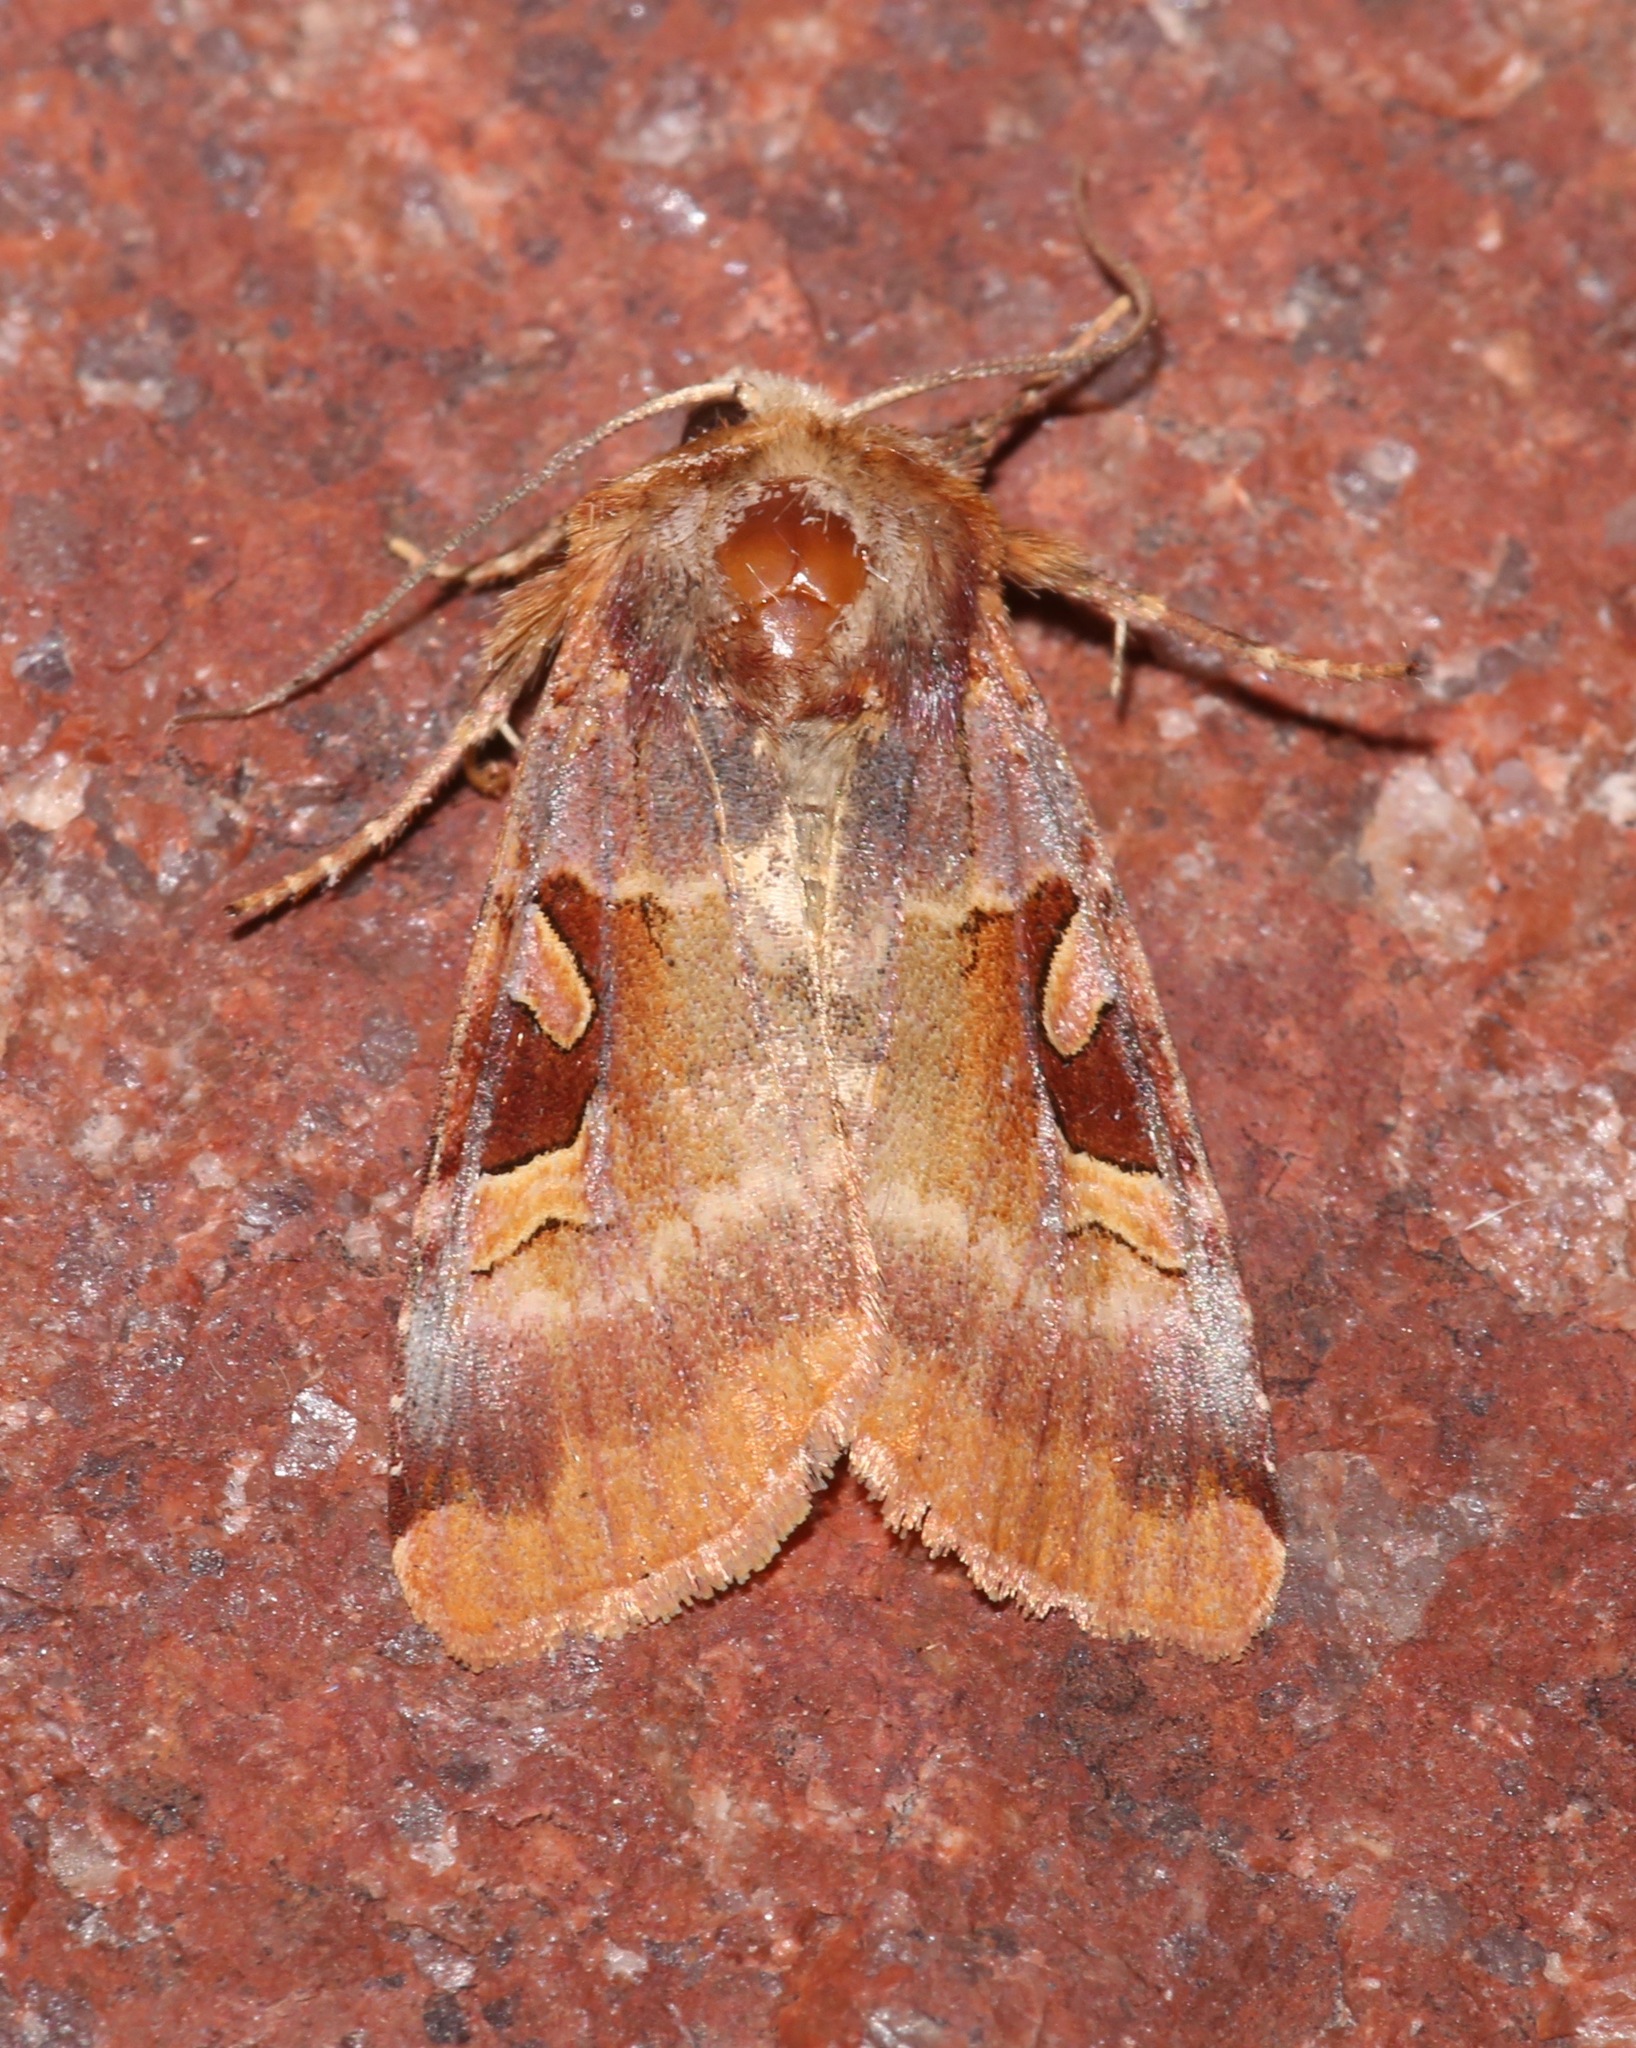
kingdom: Animalia
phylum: Arthropoda
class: Insecta
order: Lepidoptera
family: Noctuidae
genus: Xestia
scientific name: Xestia oblata
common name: Rosy dart
